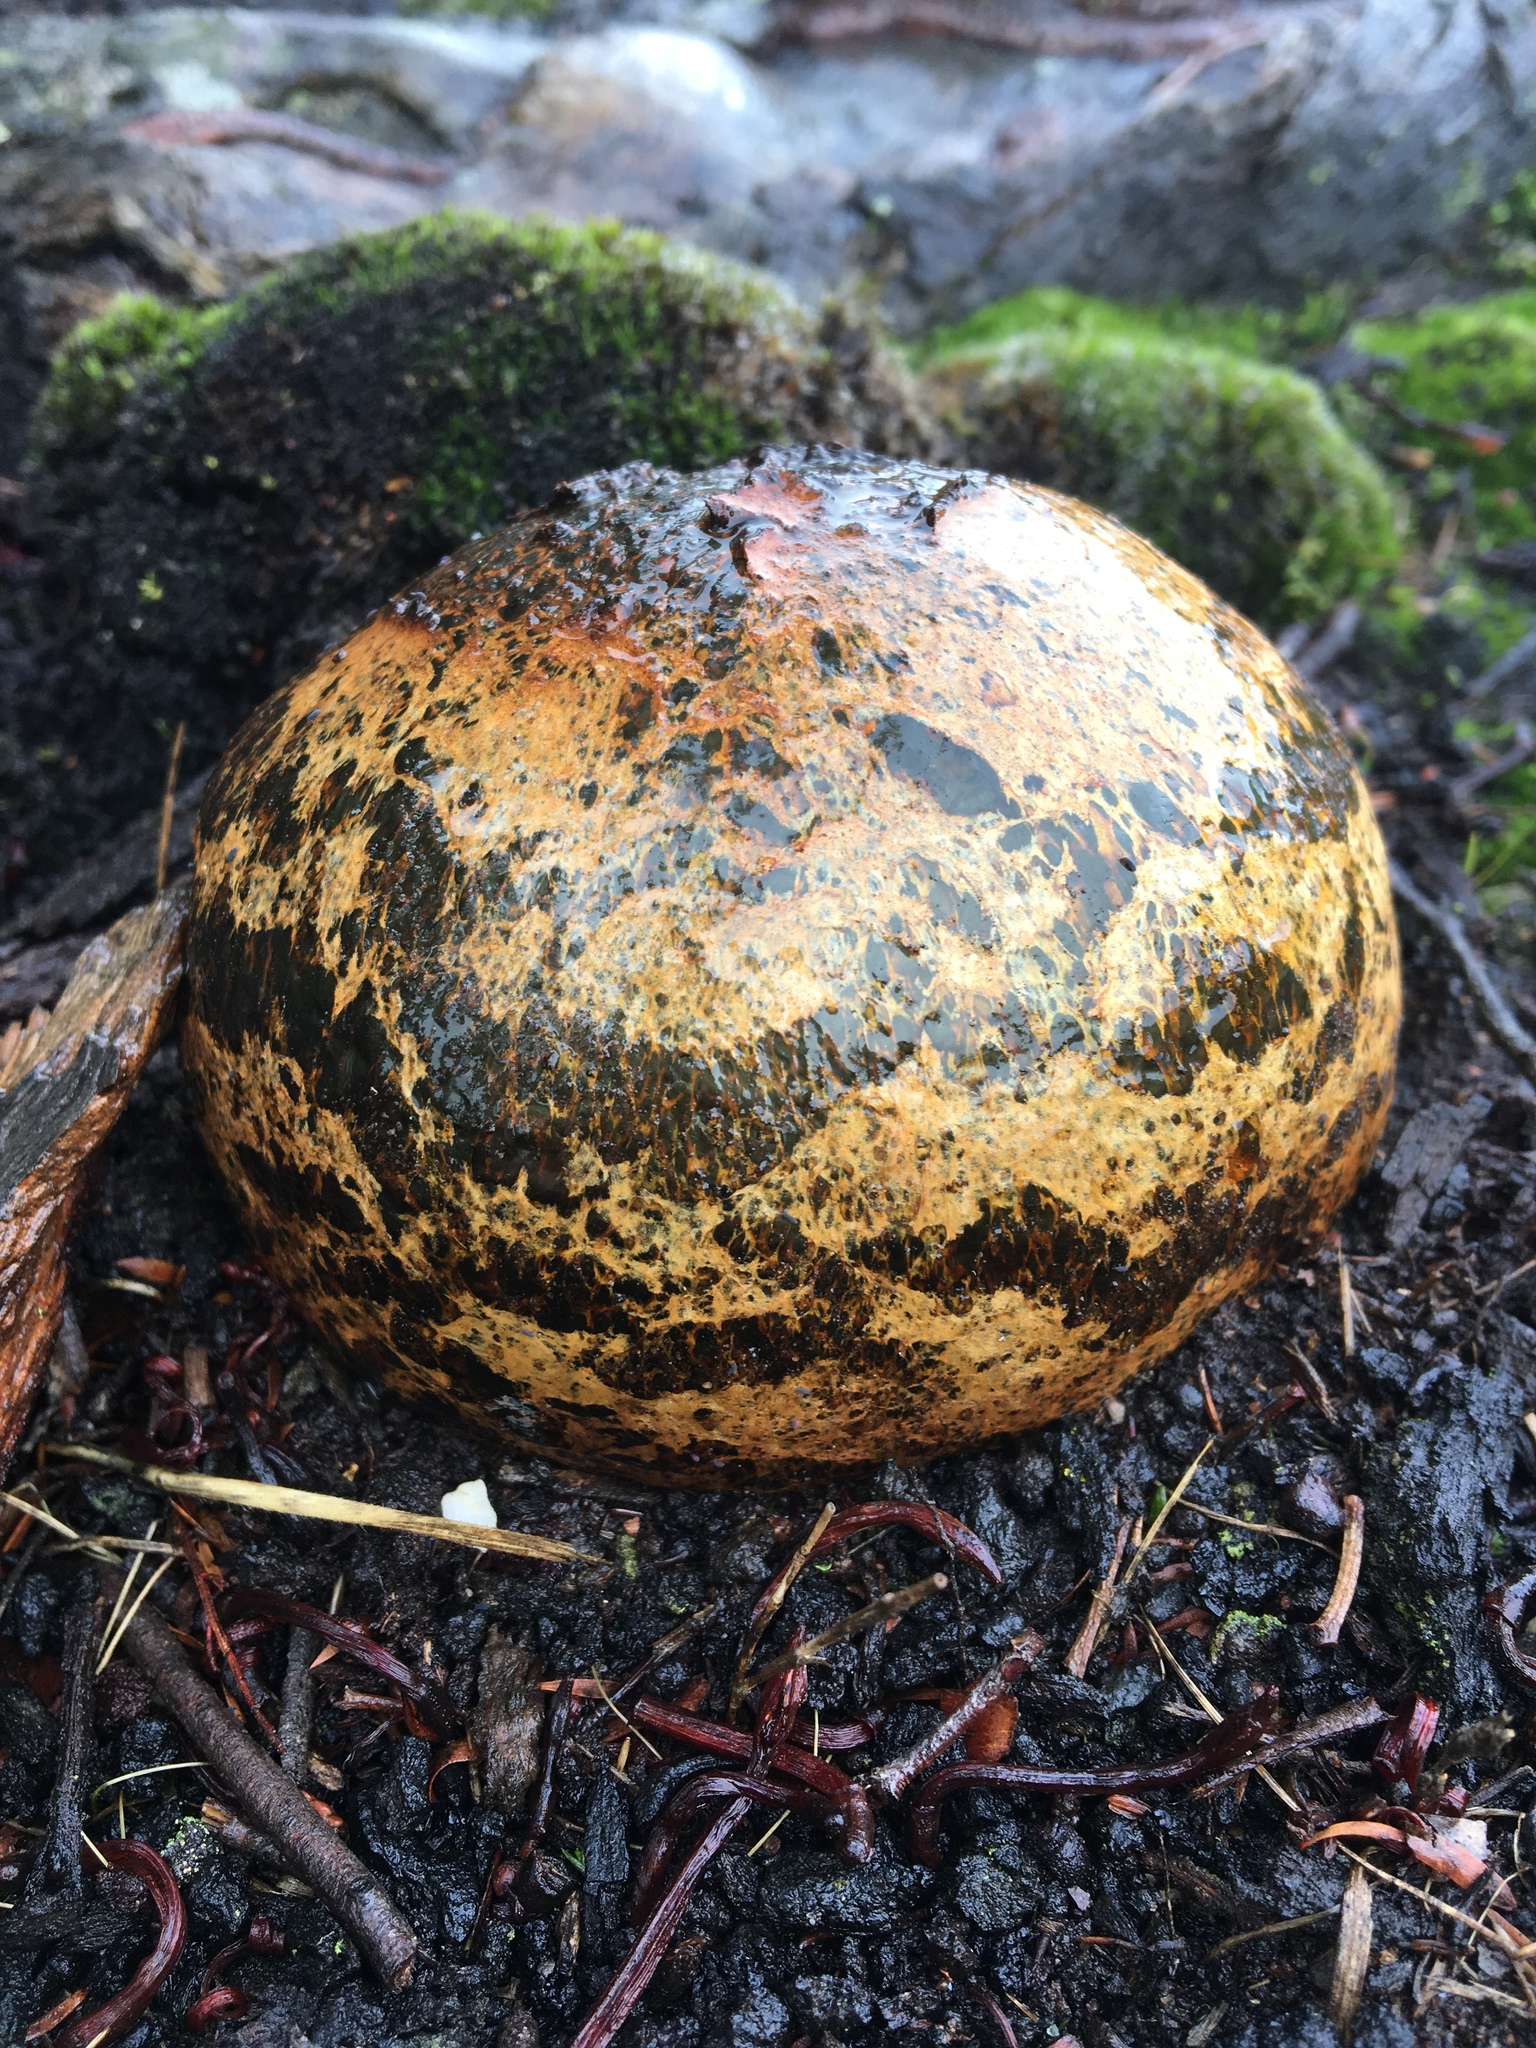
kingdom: Fungi
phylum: Basidiomycota
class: Agaricomycetes
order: Boletales
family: Sclerodermataceae
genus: Pisolithus
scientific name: Pisolithus arhizus
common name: Dyeball
